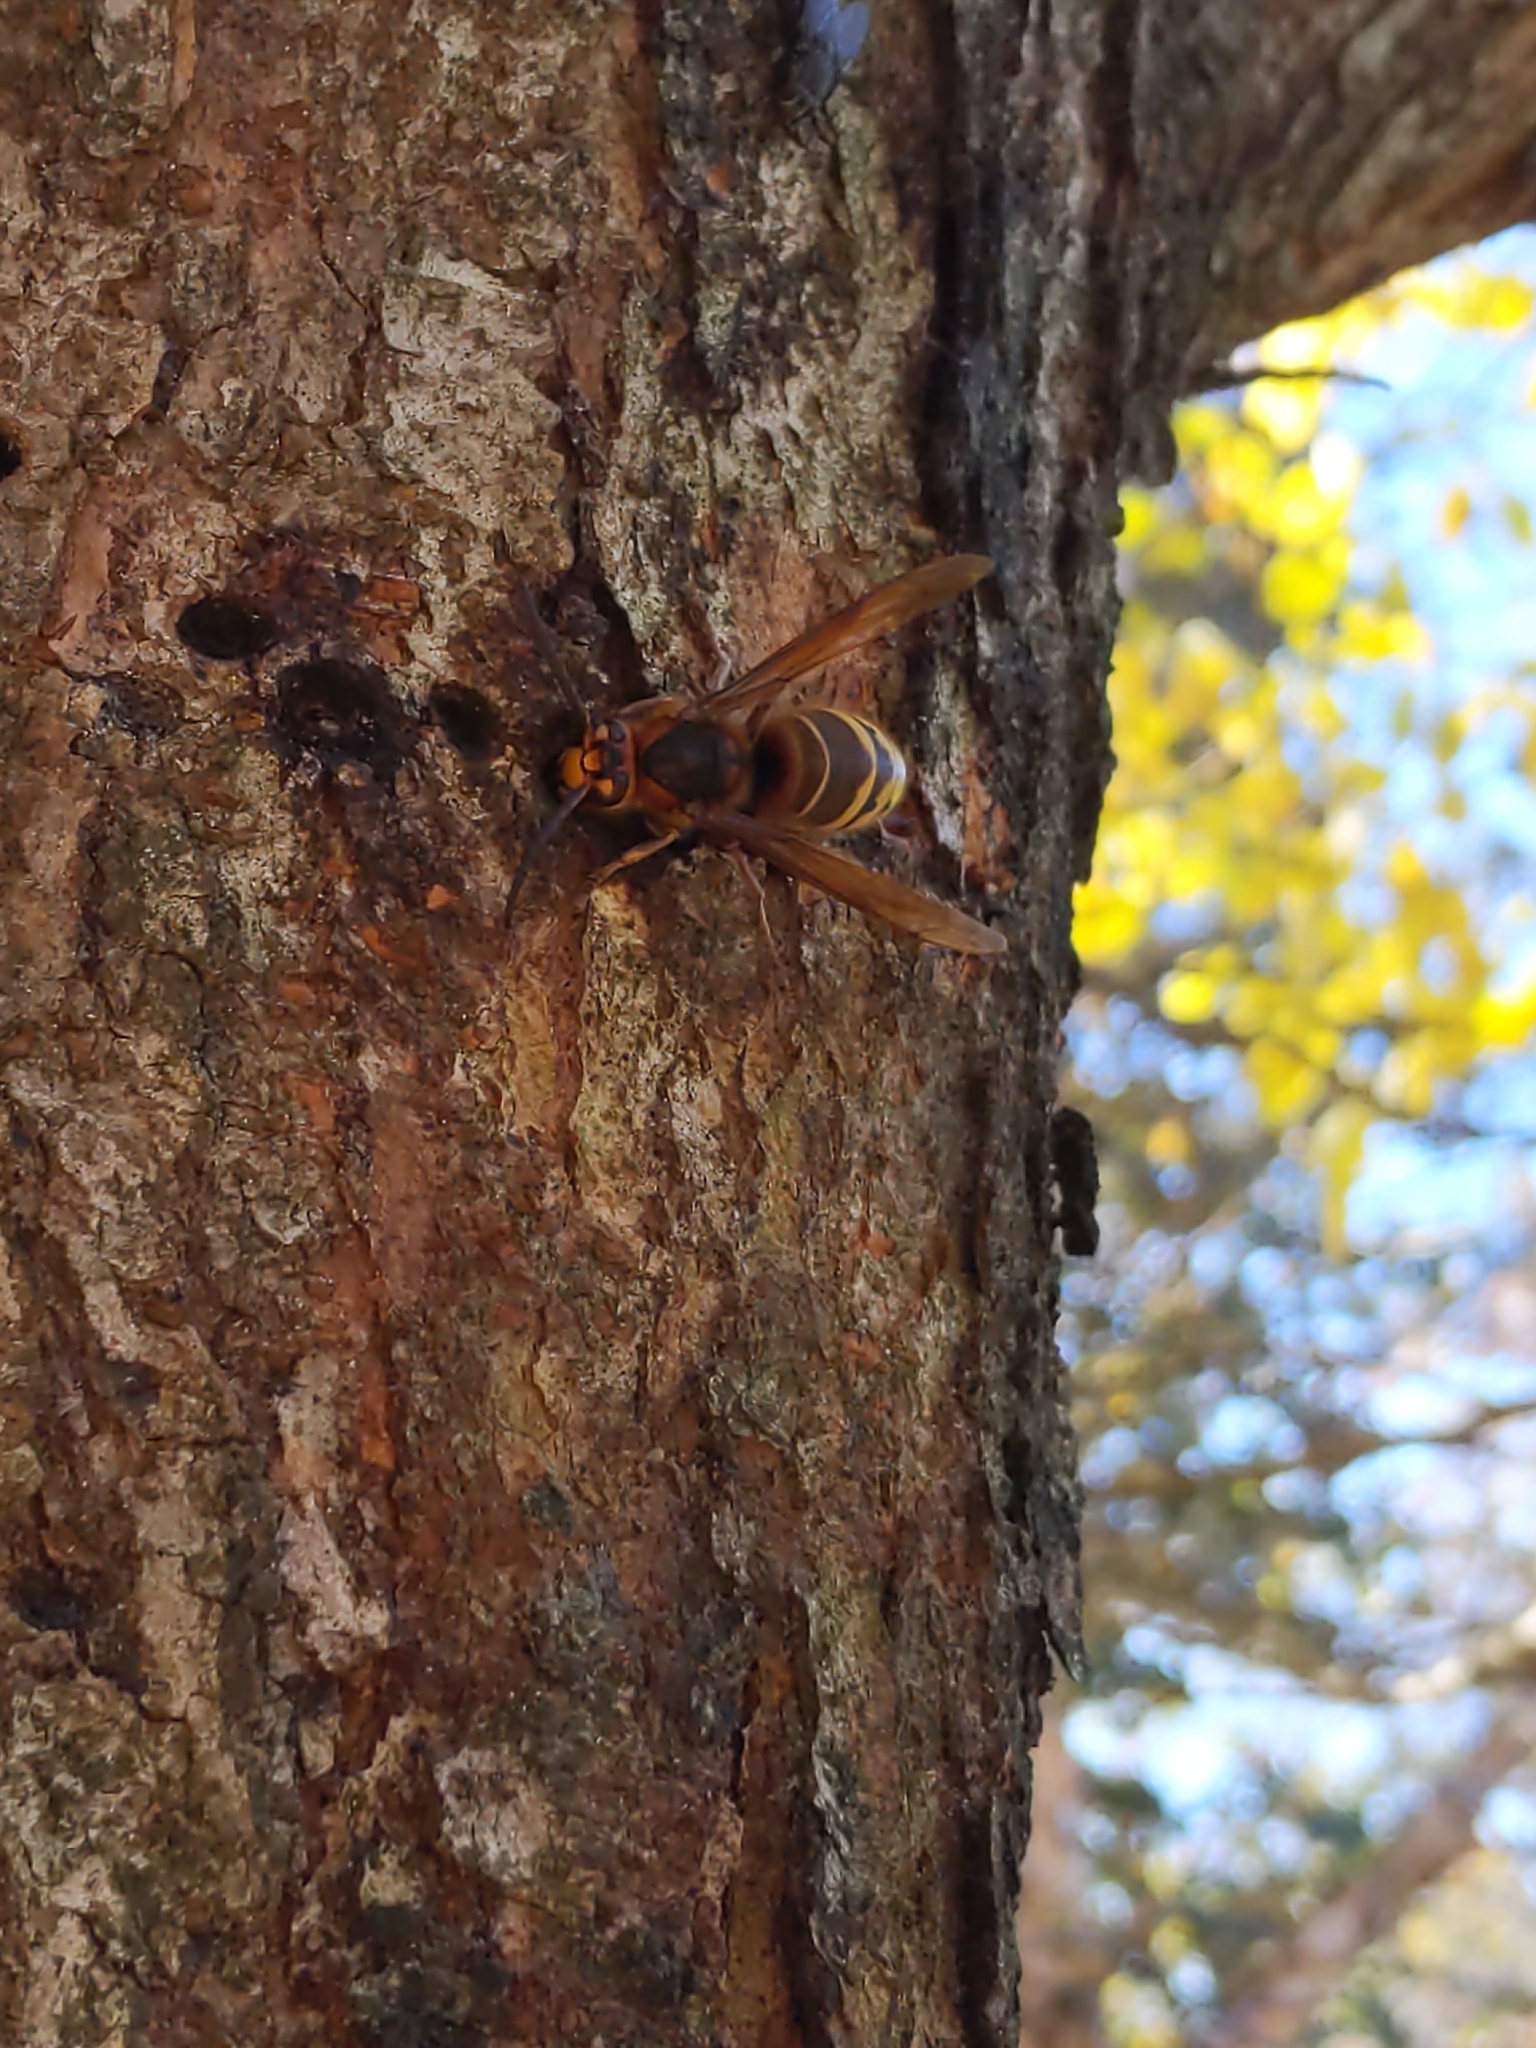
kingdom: Animalia
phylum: Arthropoda
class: Insecta
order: Hymenoptera
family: Vespidae
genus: Vespa
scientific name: Vespa crabro
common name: Hornet
